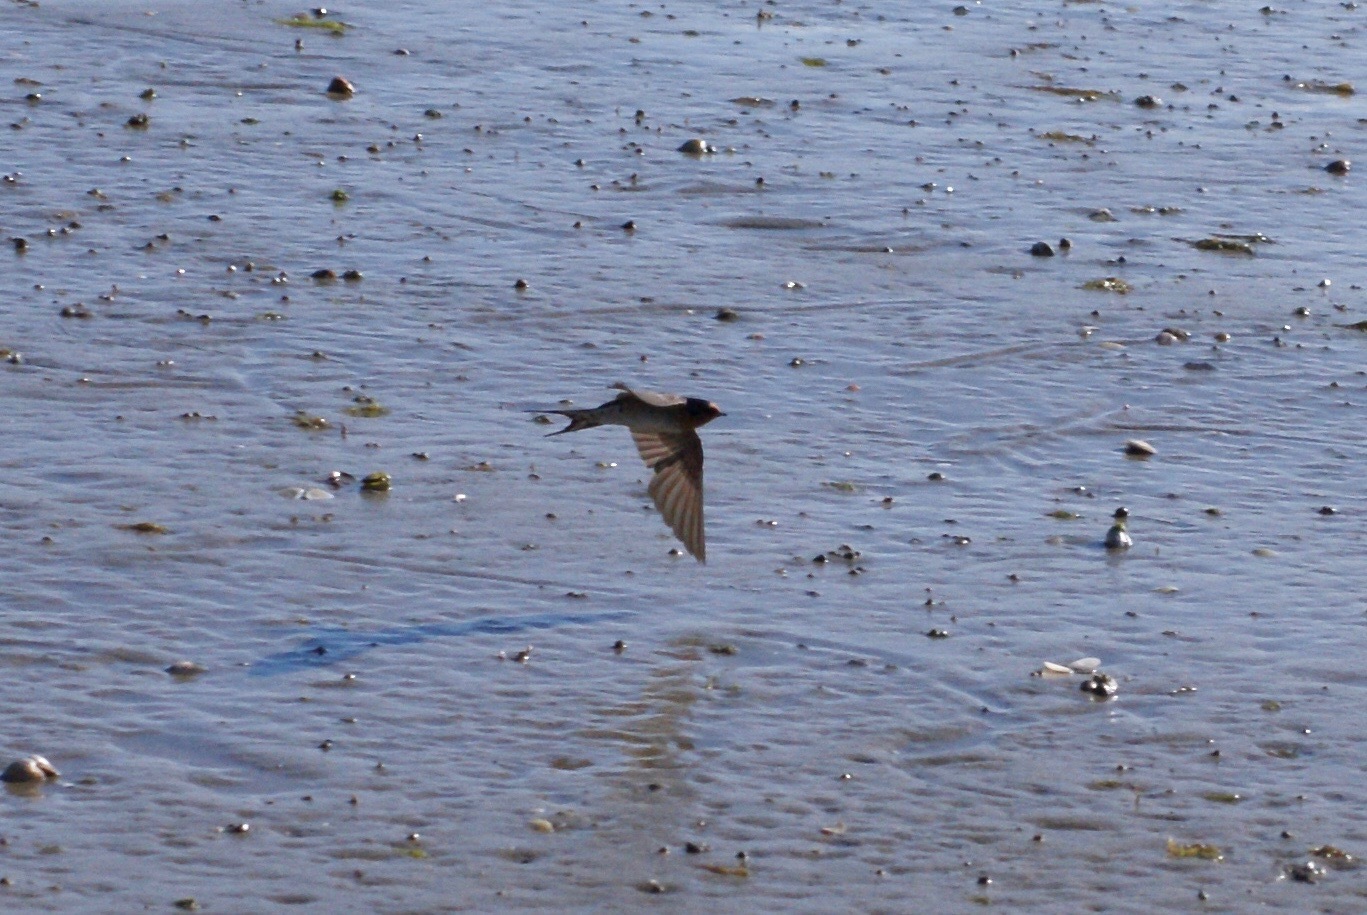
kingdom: Animalia
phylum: Chordata
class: Aves
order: Passeriformes
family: Hirundinidae
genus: Hirundo
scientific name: Hirundo neoxena
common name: Welcome swallow
